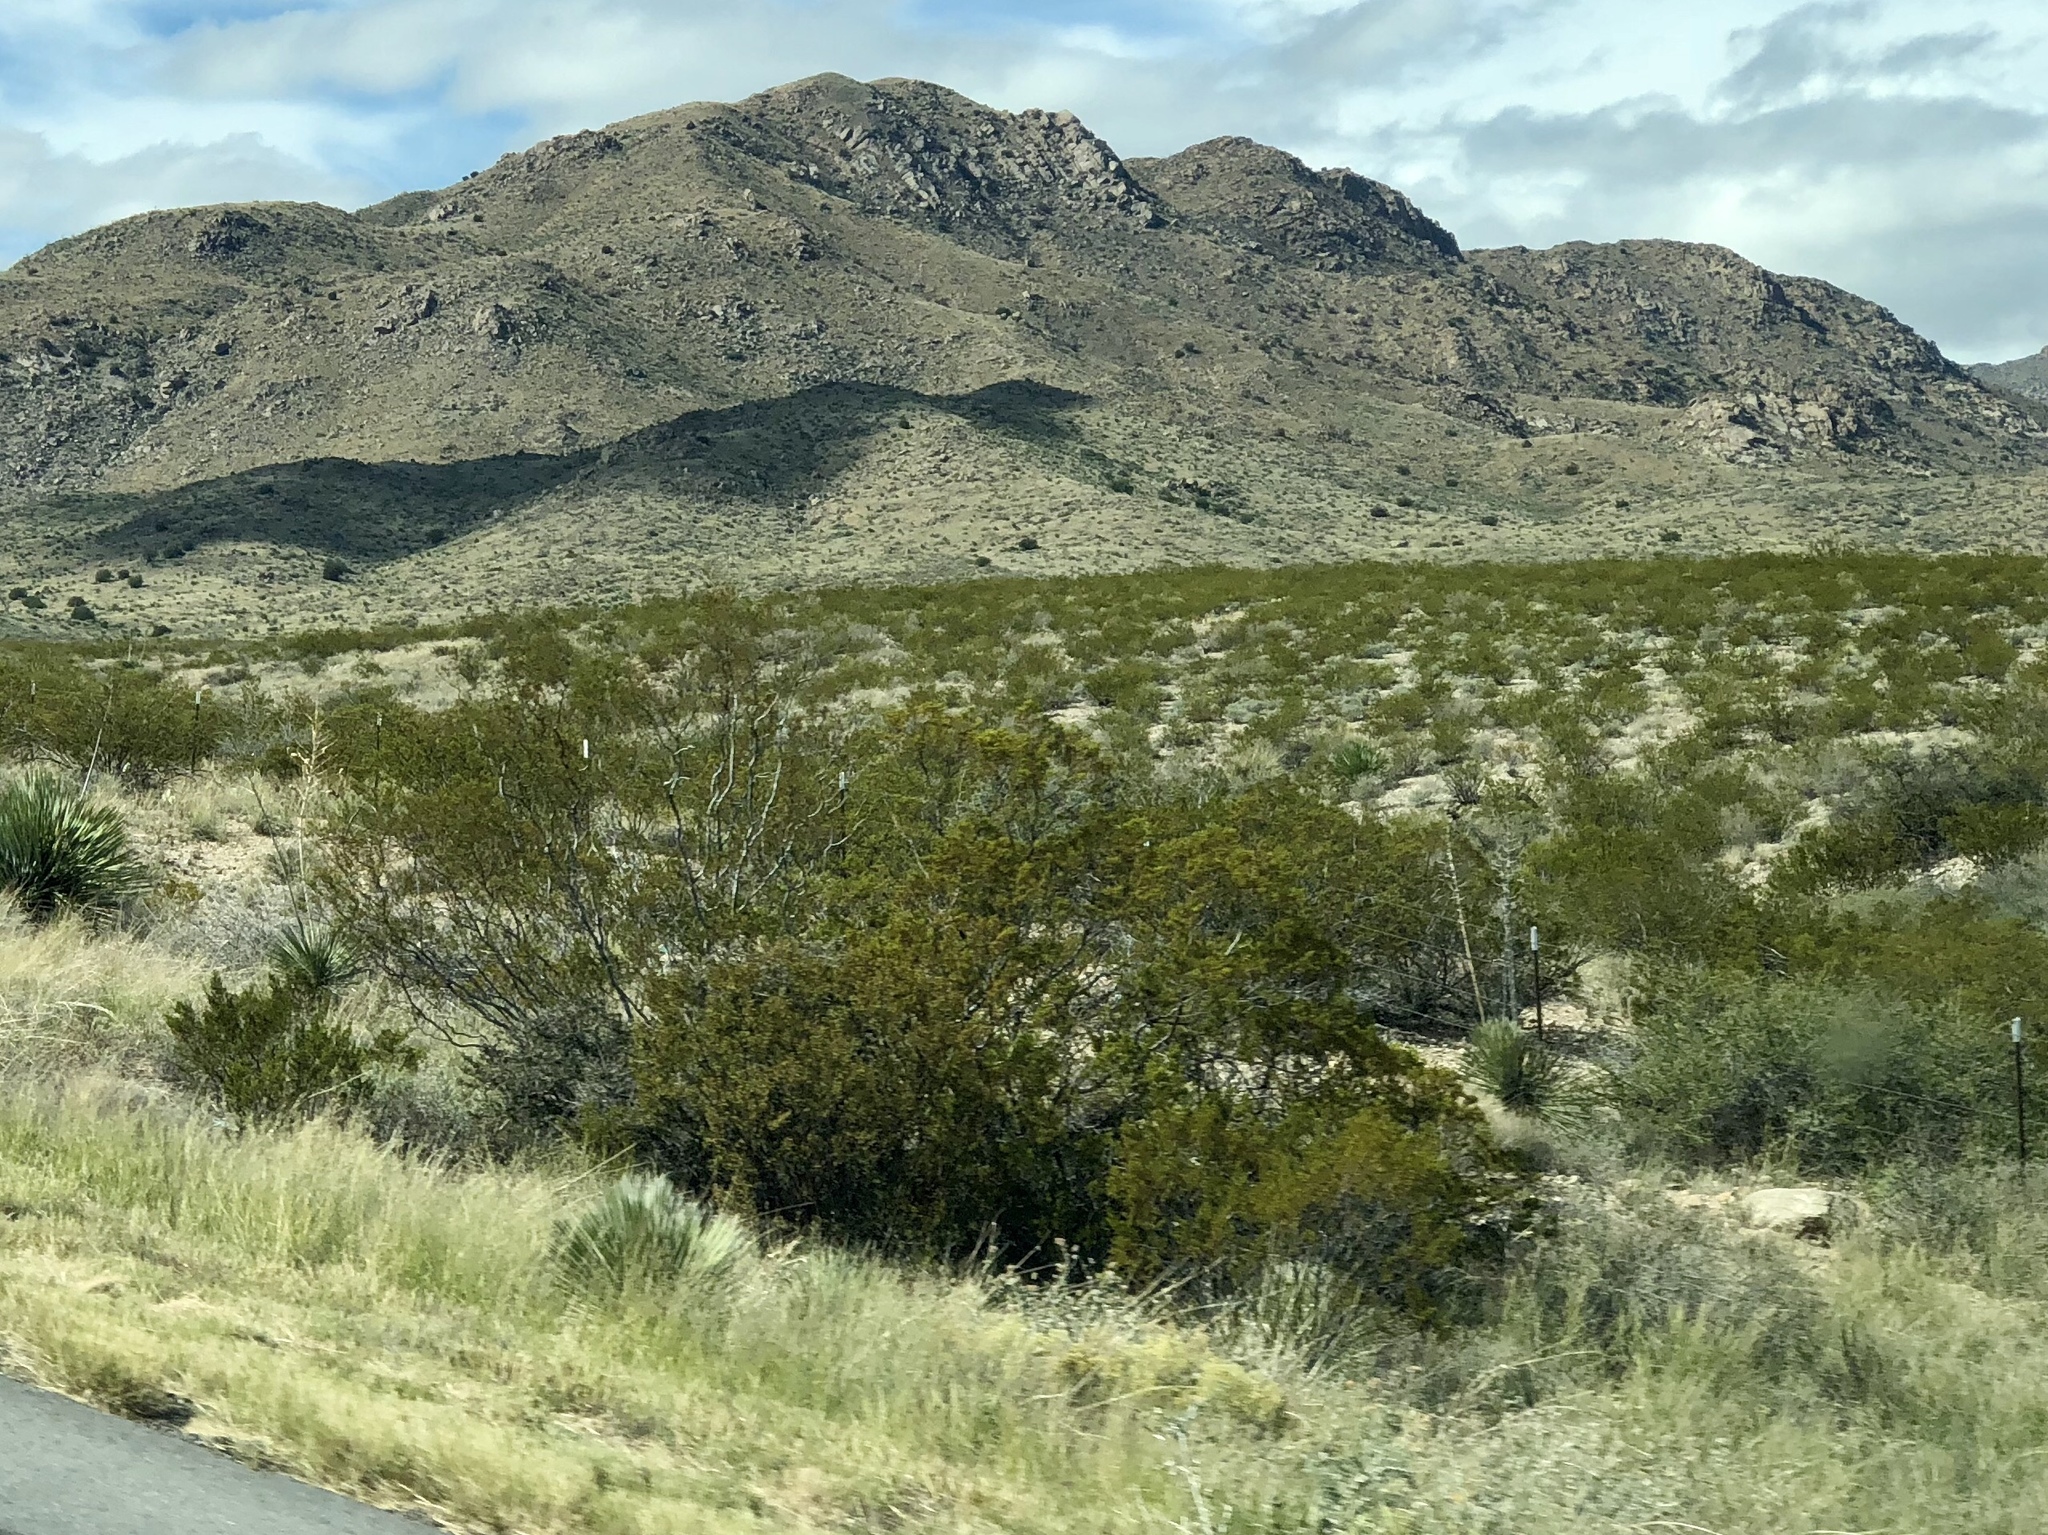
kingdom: Plantae
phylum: Tracheophyta
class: Magnoliopsida
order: Zygophyllales
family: Zygophyllaceae
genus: Larrea
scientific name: Larrea tridentata
